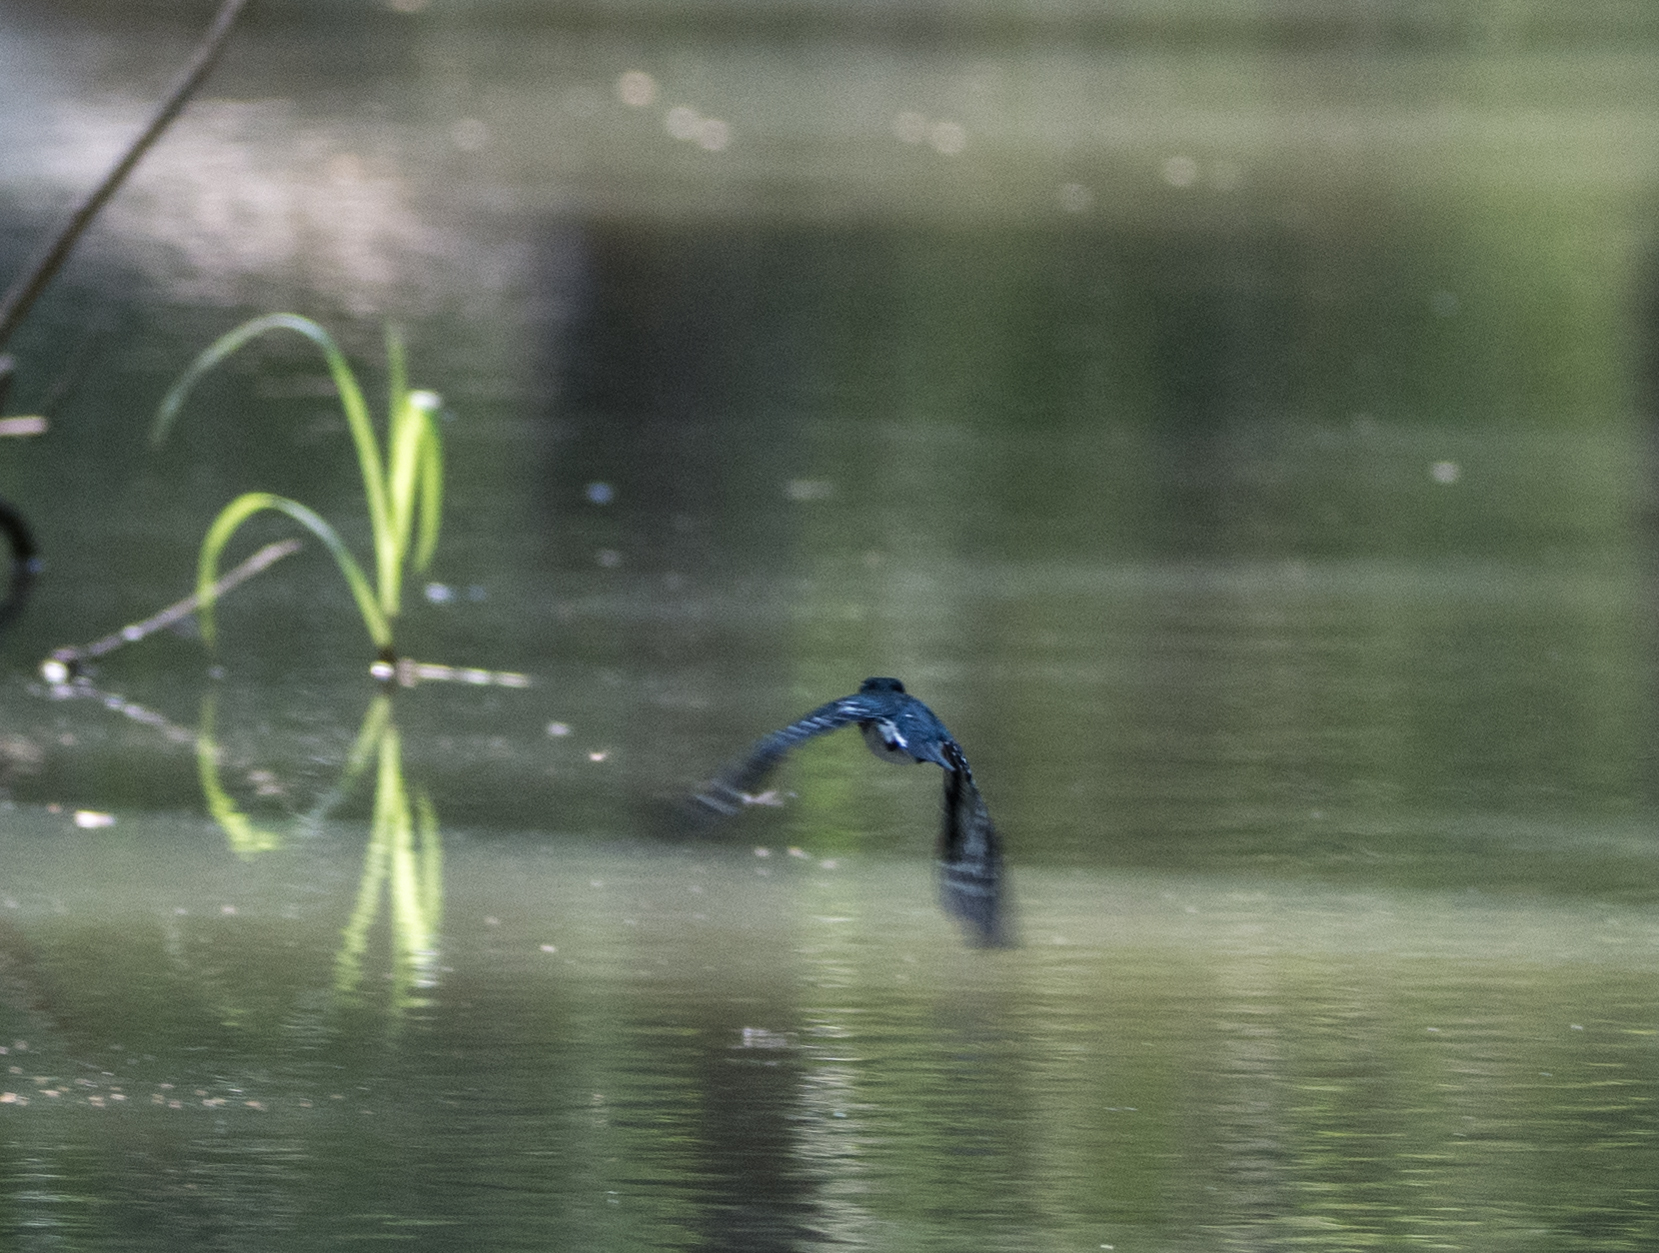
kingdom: Animalia
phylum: Chordata
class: Aves
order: Coraciiformes
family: Alcedinidae
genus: Chloroceryle
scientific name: Chloroceryle americana
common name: Green kingfisher
